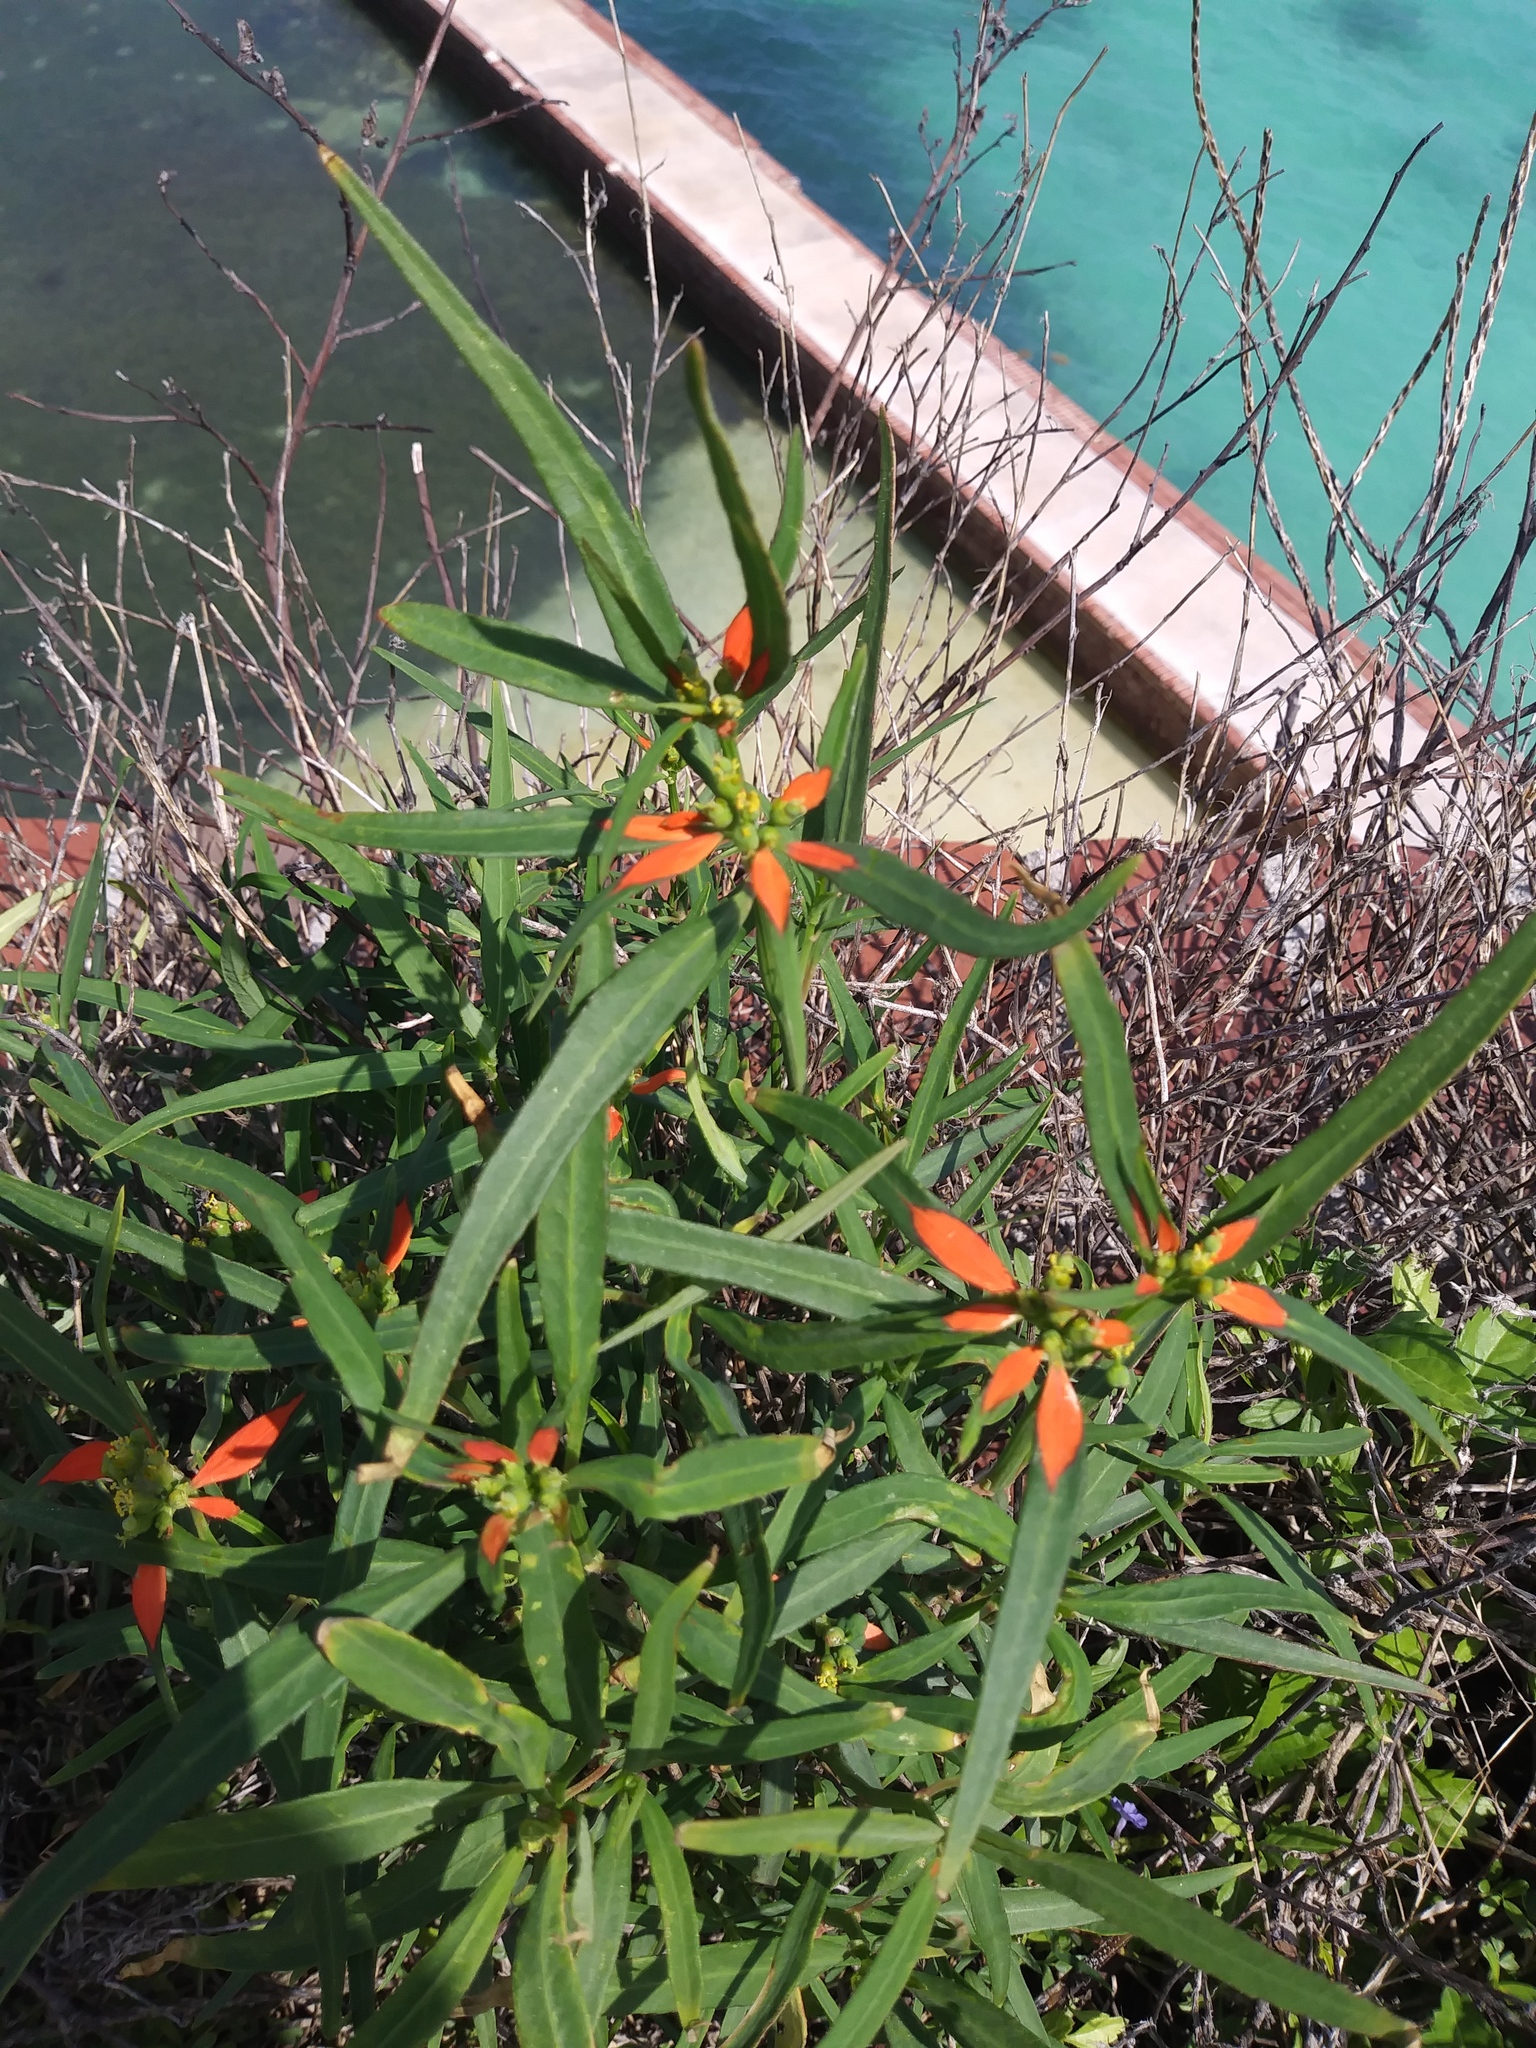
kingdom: Plantae
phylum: Tracheophyta
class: Magnoliopsida
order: Malpighiales
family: Euphorbiaceae
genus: Euphorbia
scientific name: Euphorbia heterophylla
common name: Mexican fireplant
